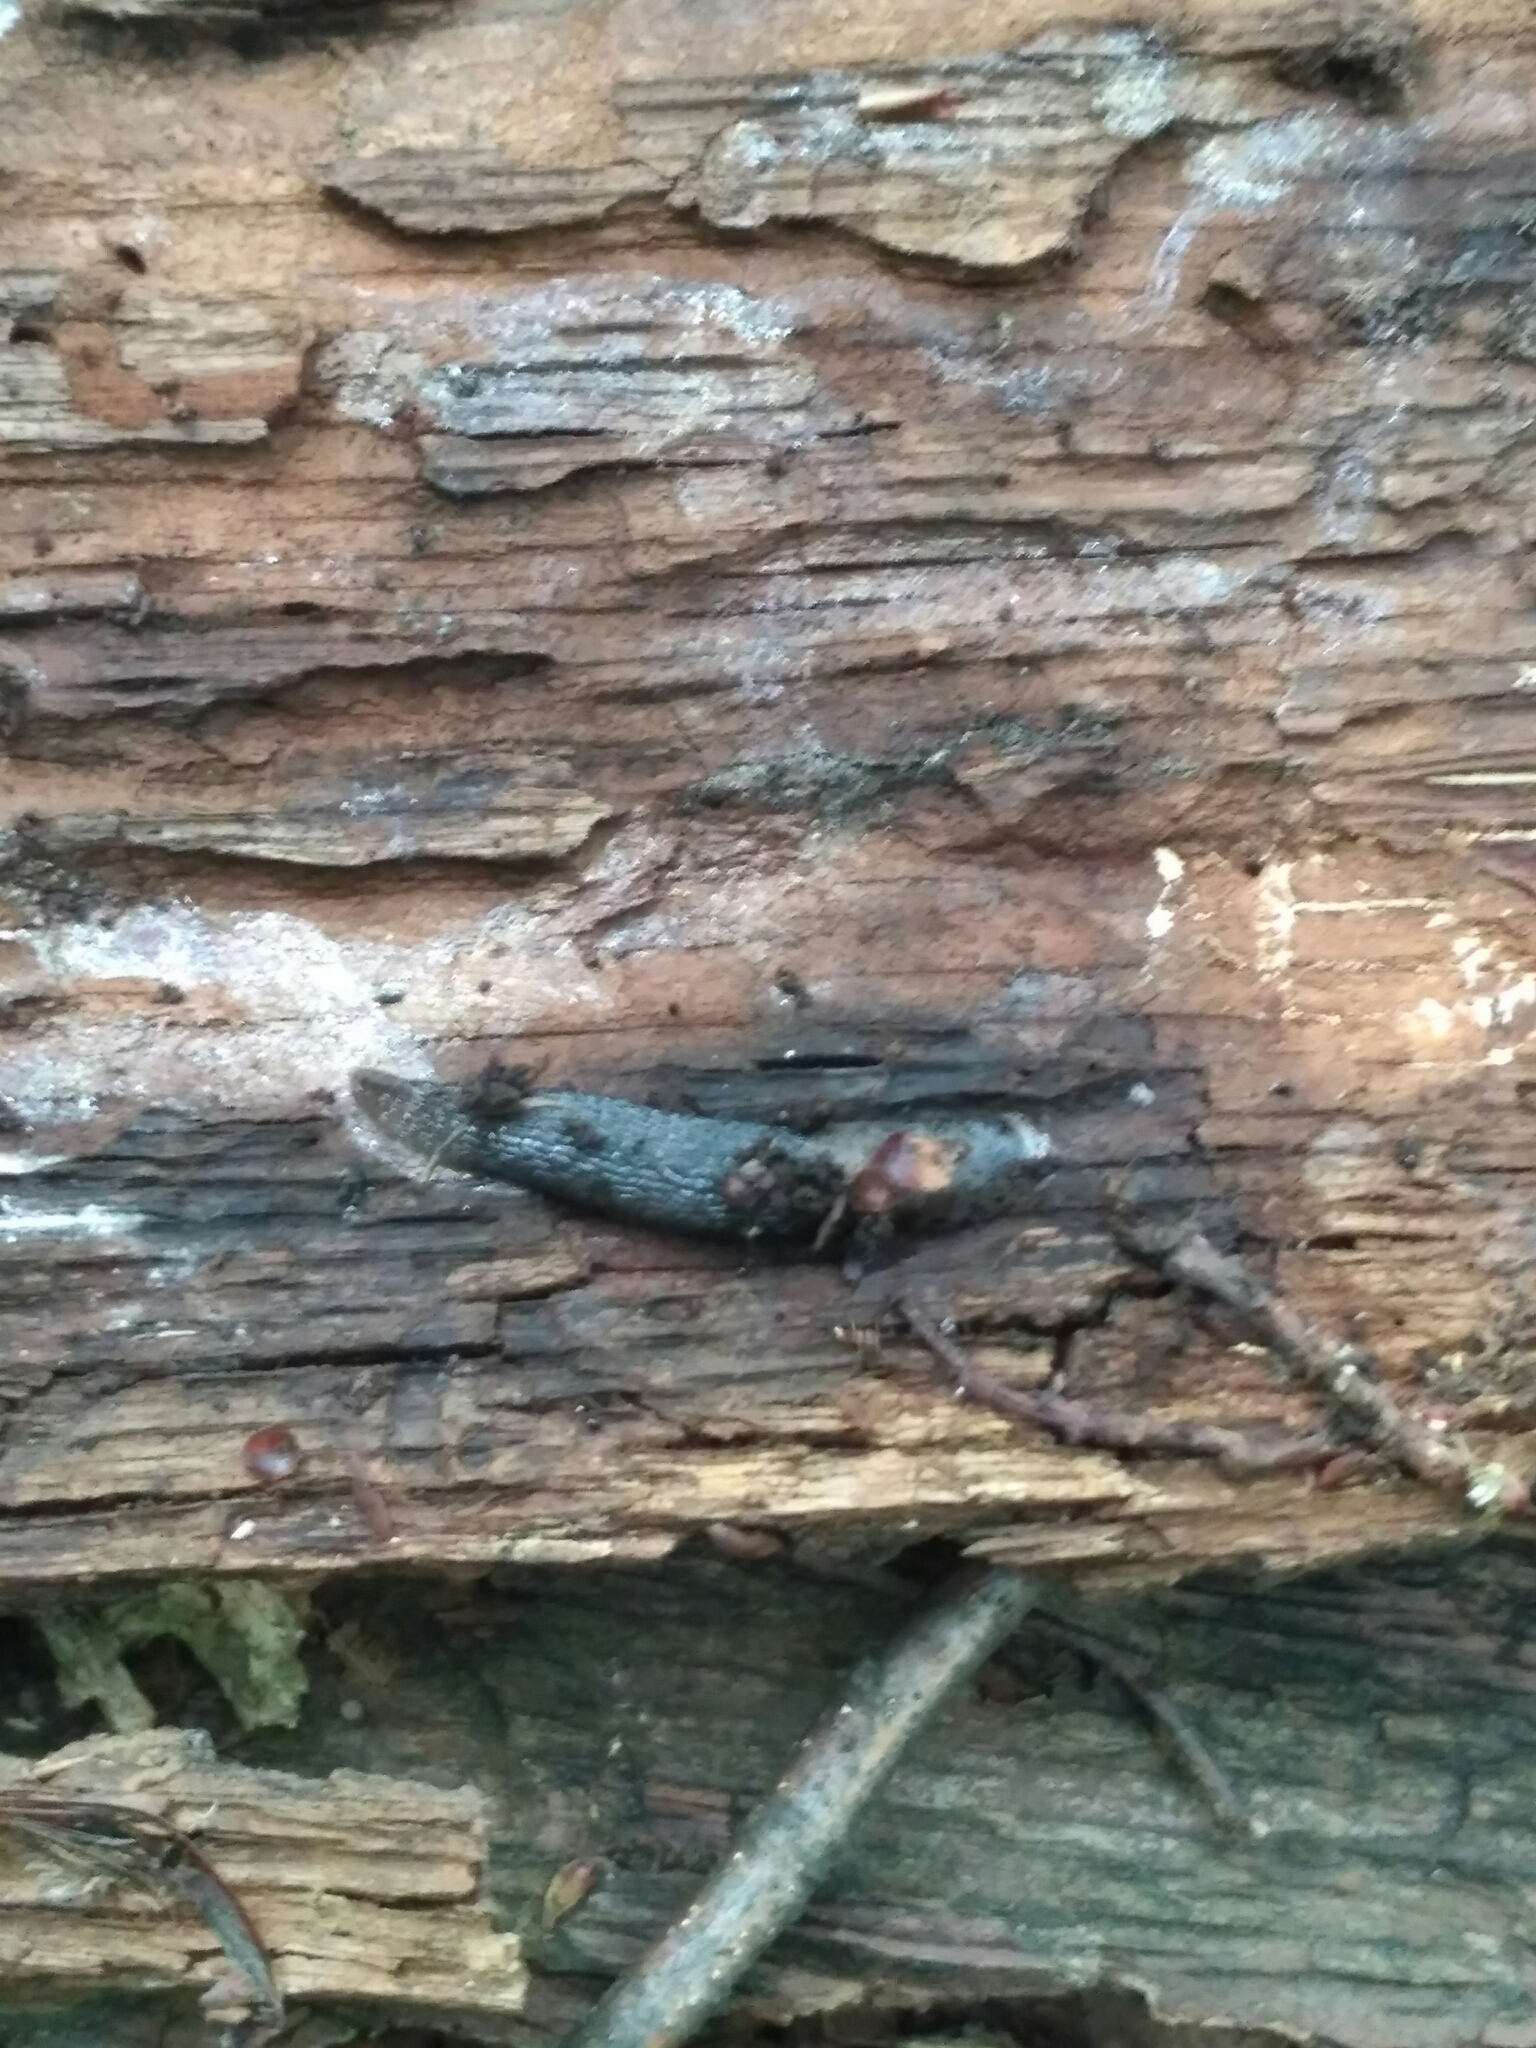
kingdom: Animalia
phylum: Mollusca
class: Gastropoda
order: Stylommatophora
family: Limacidae
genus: Limax
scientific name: Limax maximus
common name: Great grey slug
